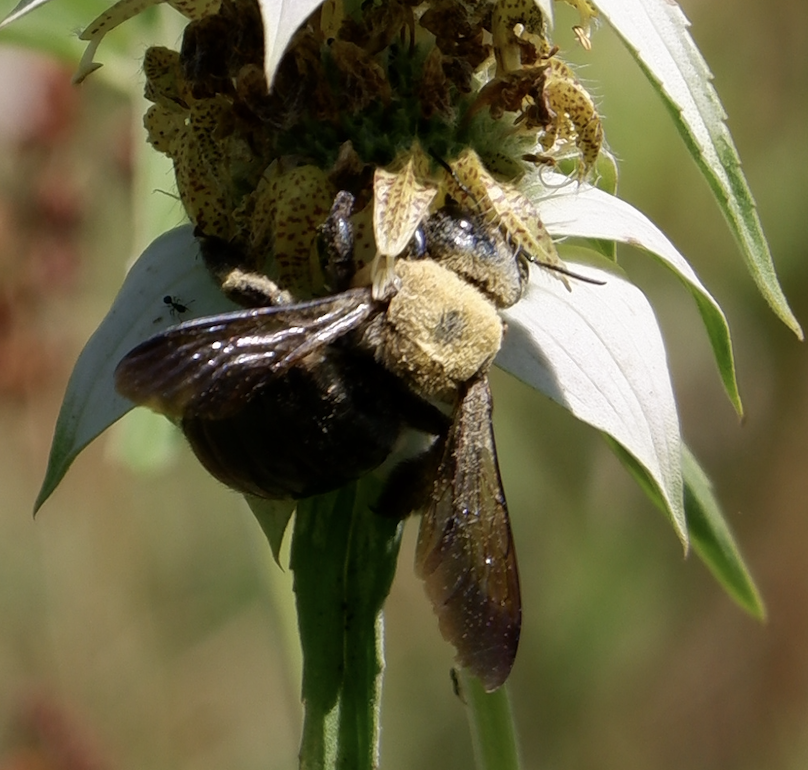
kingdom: Animalia
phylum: Arthropoda
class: Insecta
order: Hymenoptera
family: Apidae
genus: Xylocopa
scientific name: Xylocopa virginica
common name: Carpenter bee
